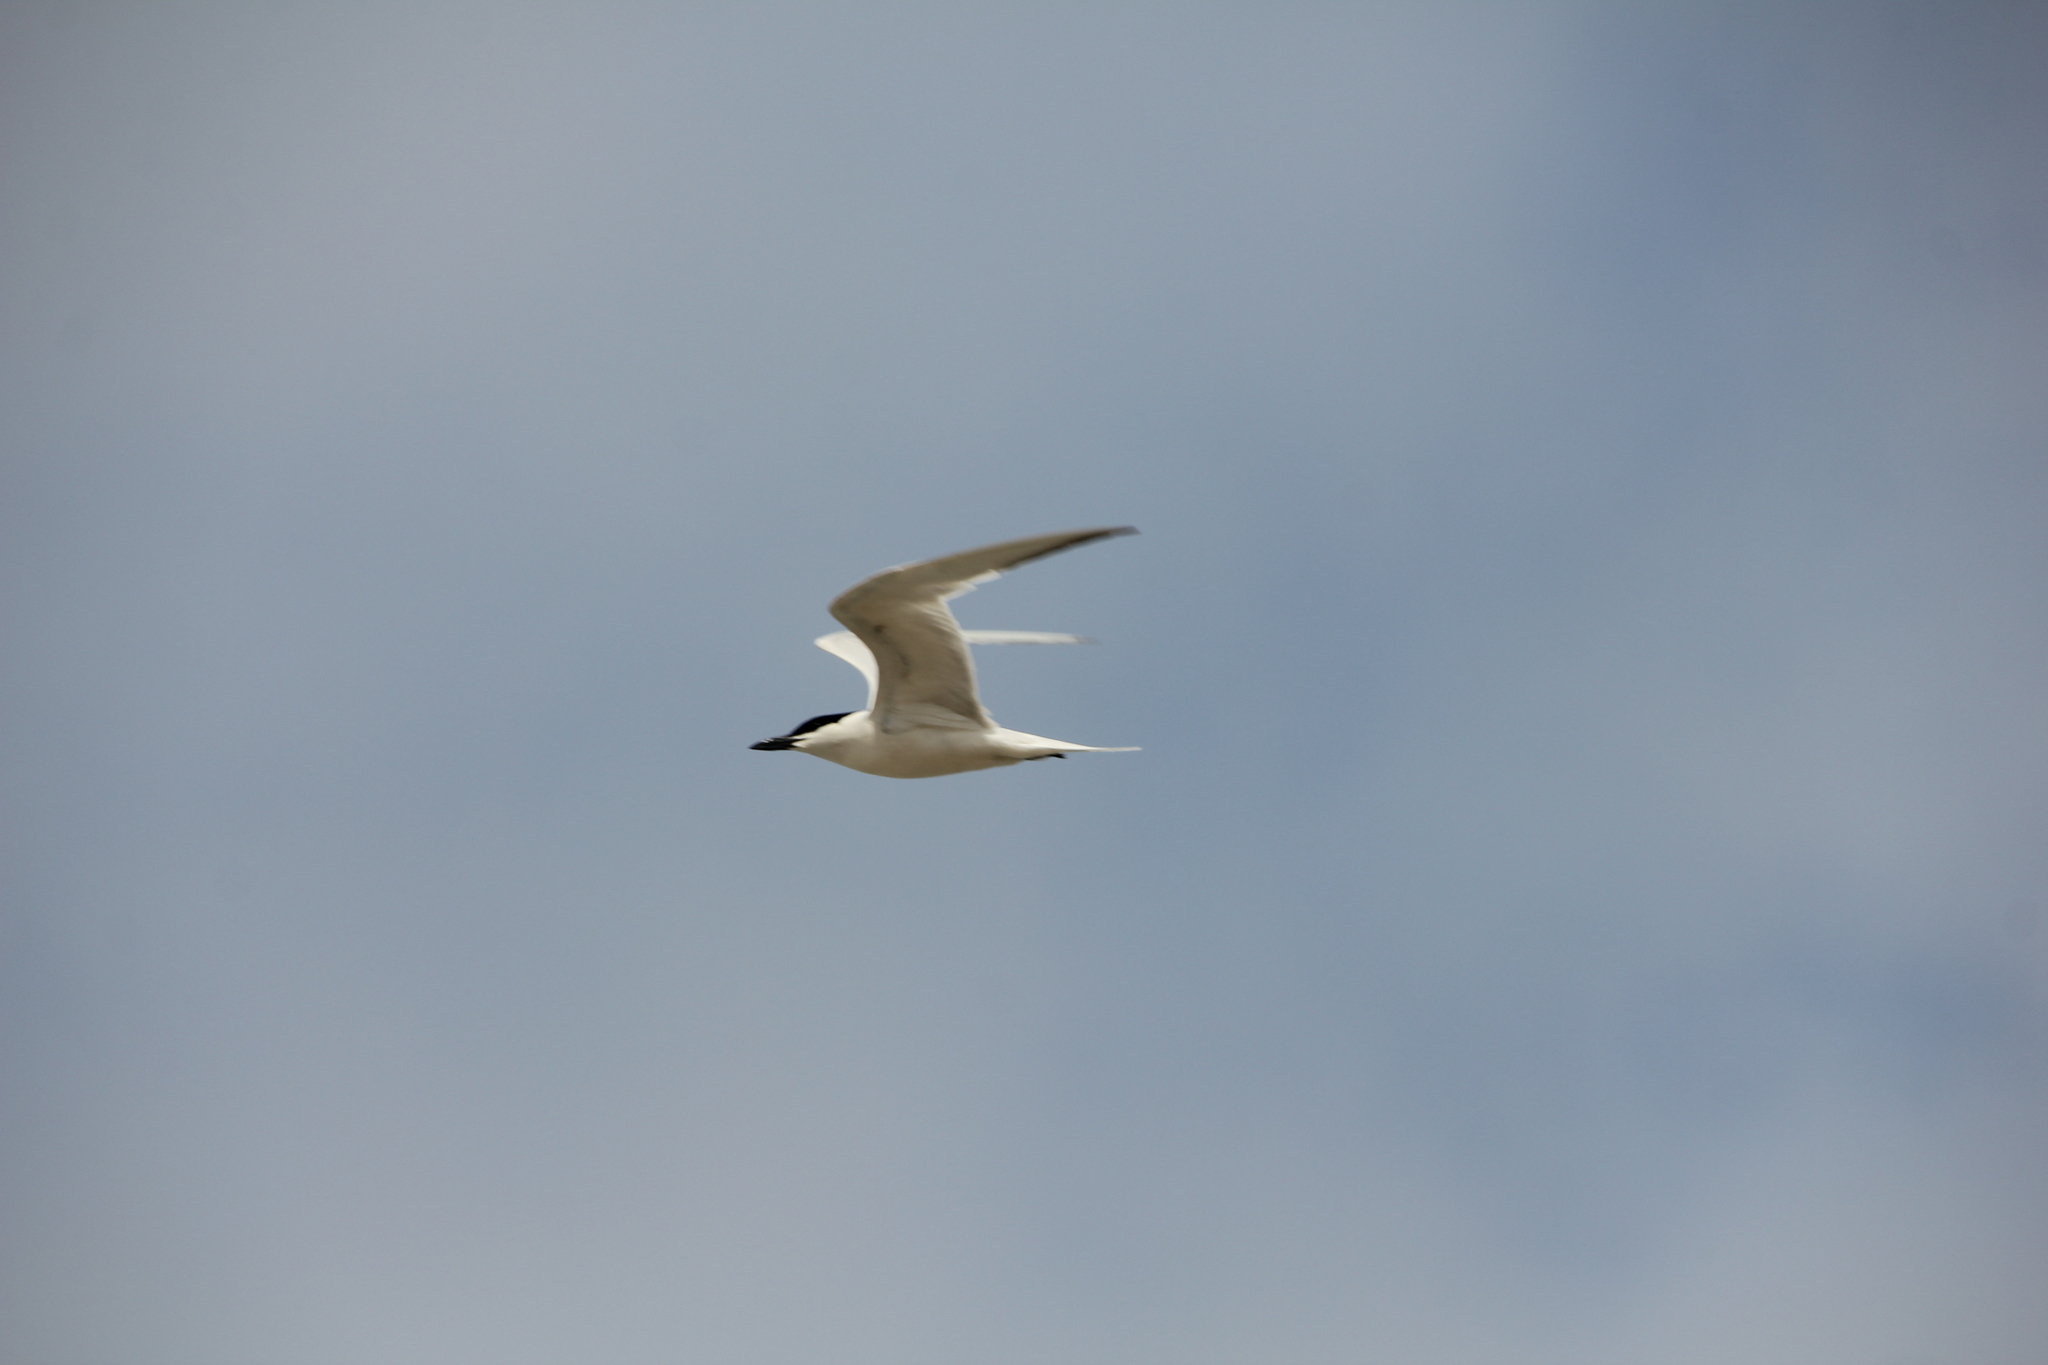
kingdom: Animalia
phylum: Chordata
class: Aves
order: Charadriiformes
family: Laridae
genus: Gelochelidon
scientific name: Gelochelidon nilotica
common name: Gull-billed tern
